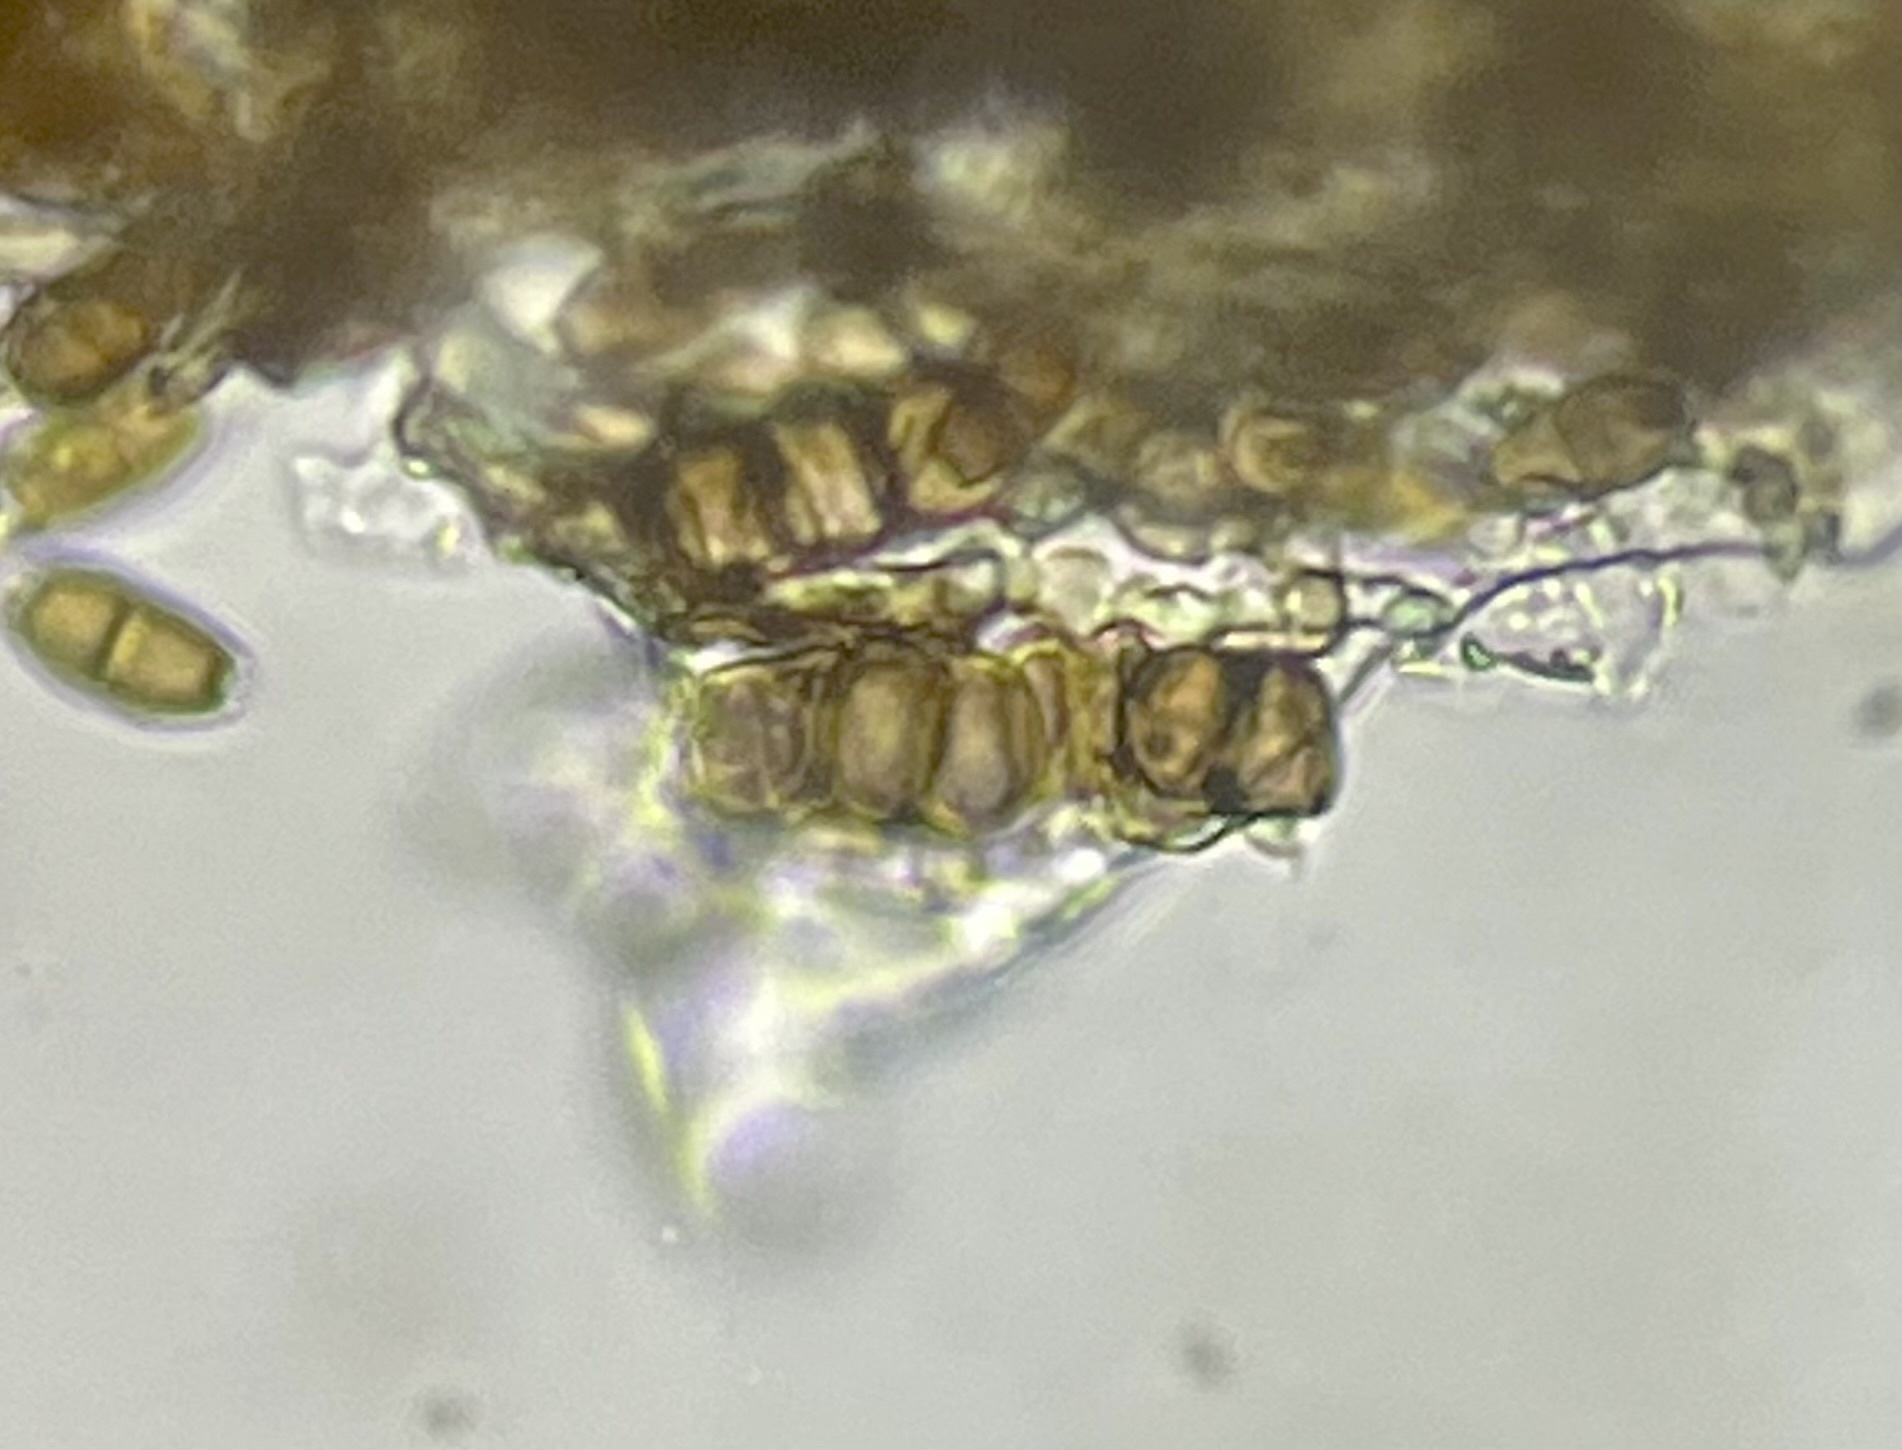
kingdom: Fungi
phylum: Ascomycota
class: Sordariomycetes
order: Amphisphaeriales
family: Bartaliniaceae
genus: Truncatella
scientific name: Truncatella conorum-piceae
